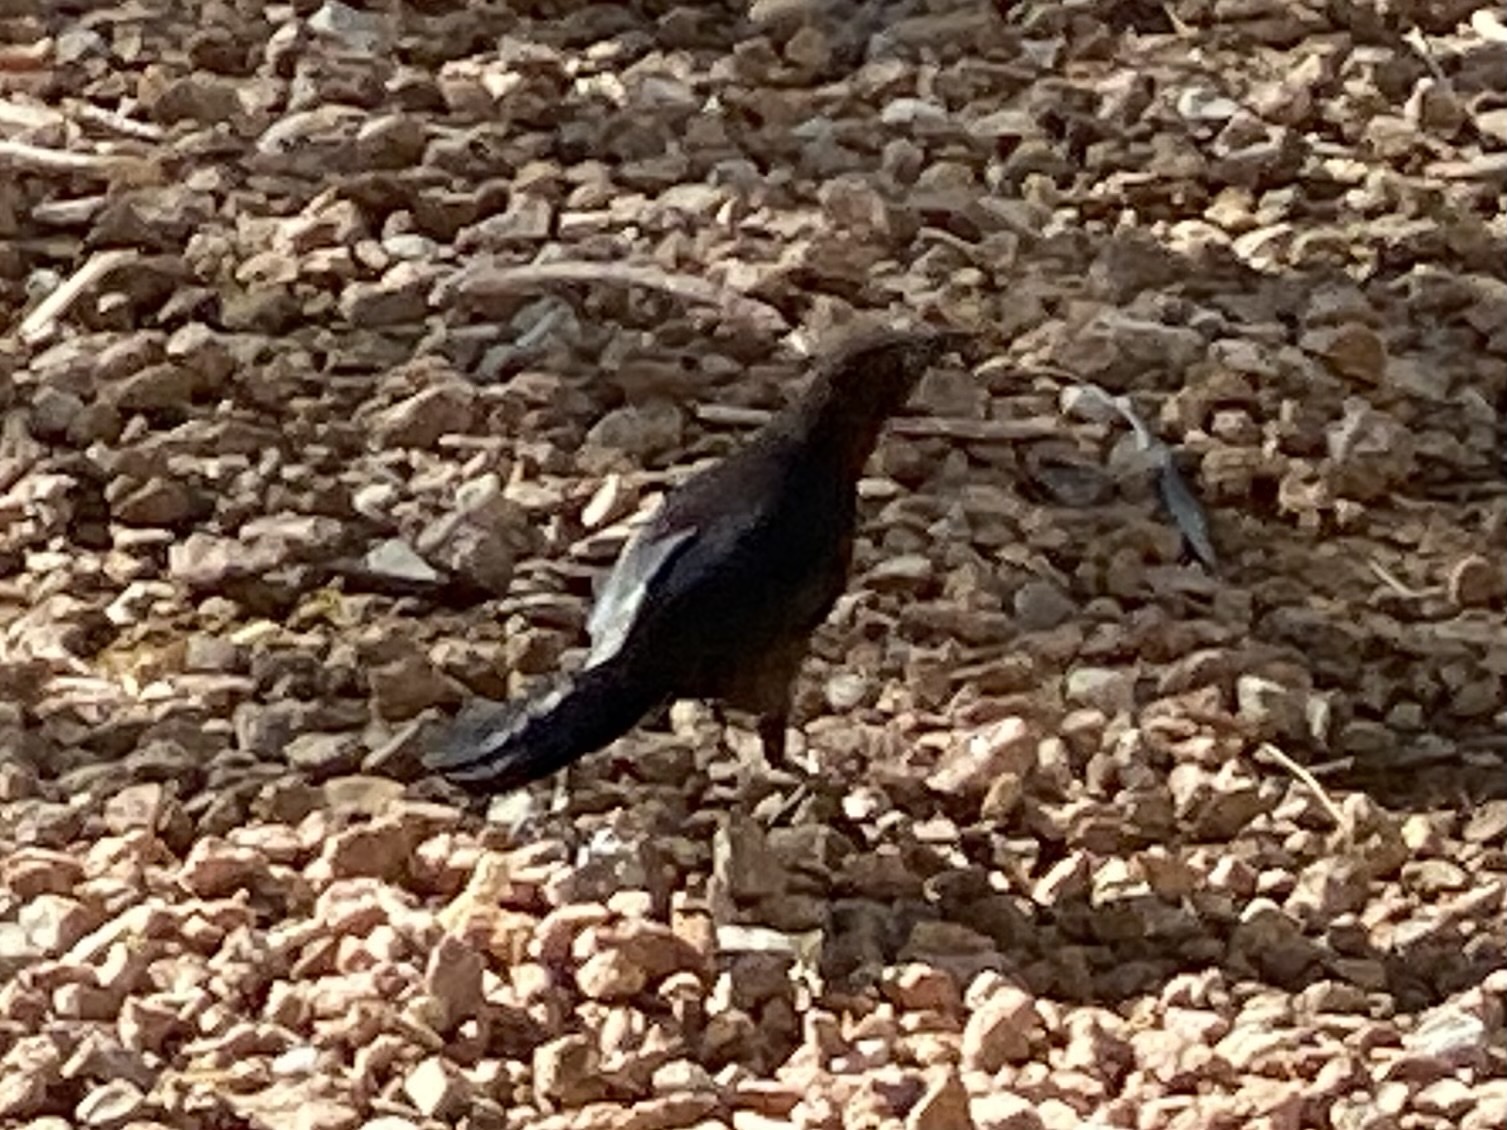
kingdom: Animalia
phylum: Chordata
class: Aves
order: Passeriformes
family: Icteridae
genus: Quiscalus
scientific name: Quiscalus mexicanus
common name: Great-tailed grackle
